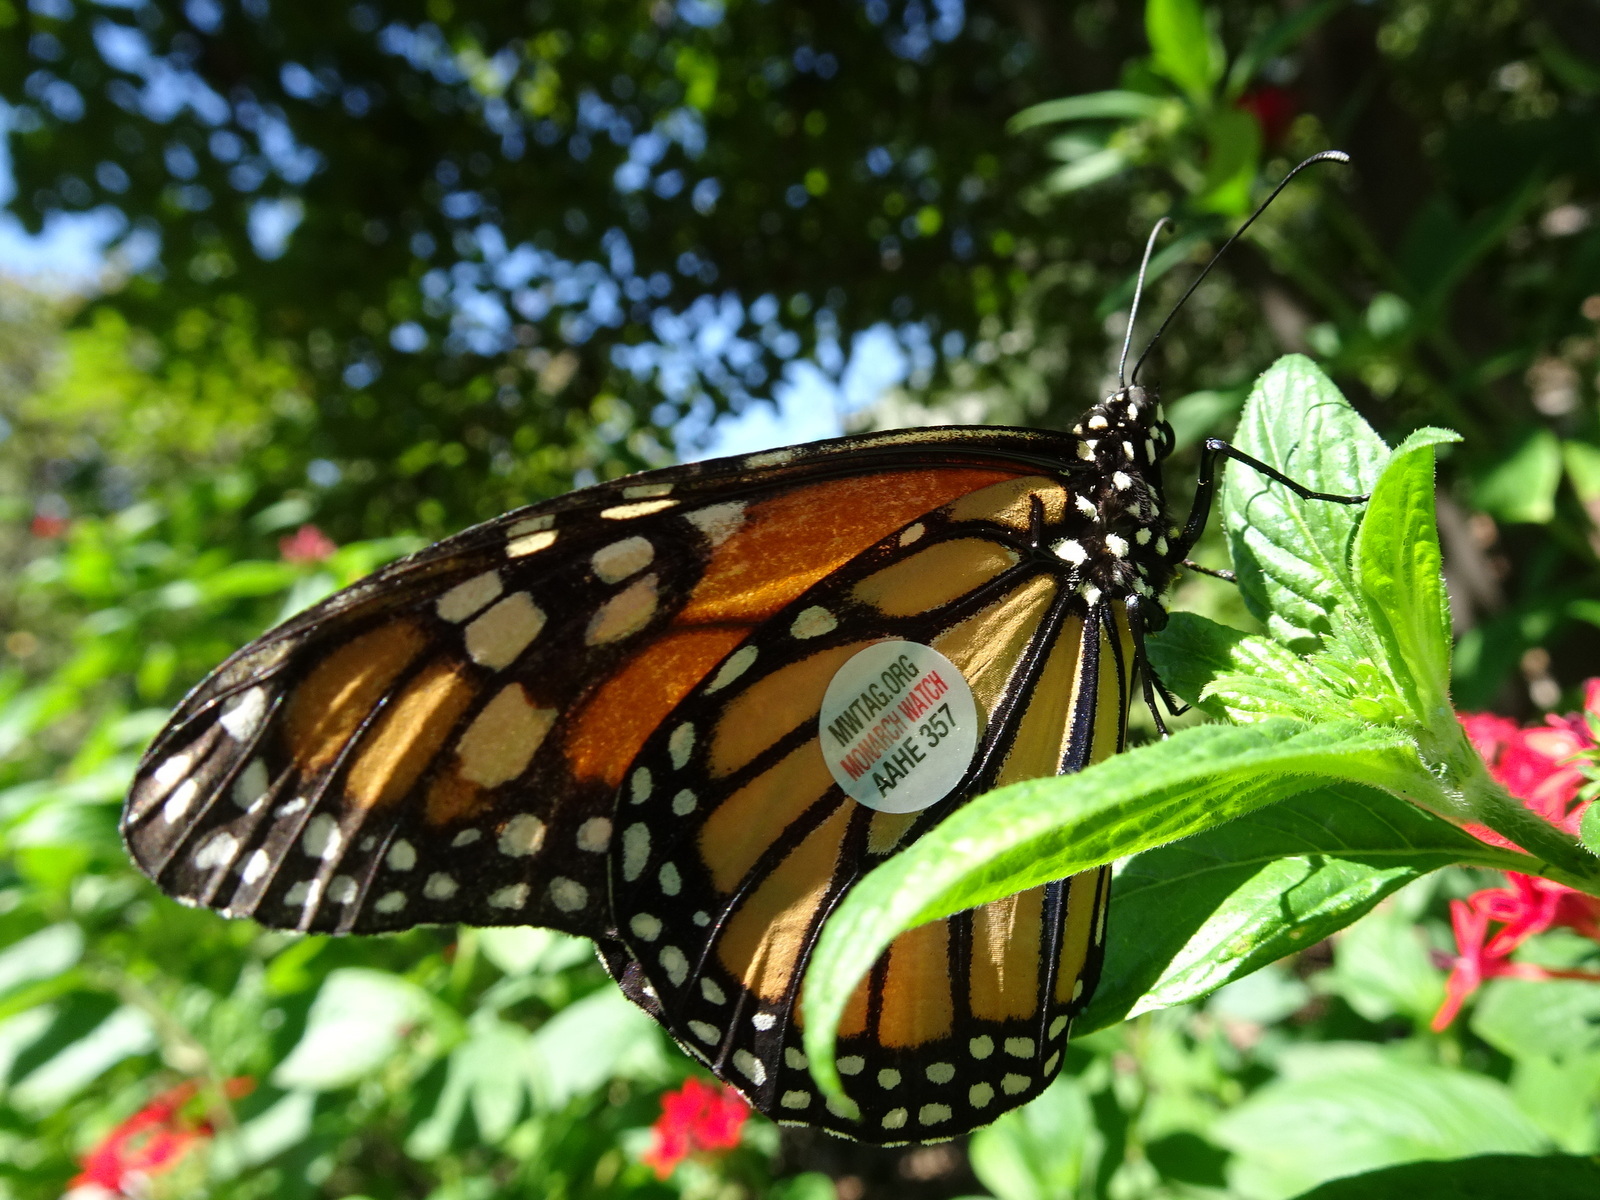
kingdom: Animalia
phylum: Arthropoda
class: Insecta
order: Lepidoptera
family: Nymphalidae
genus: Danaus
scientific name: Danaus plexippus
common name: Monarch
